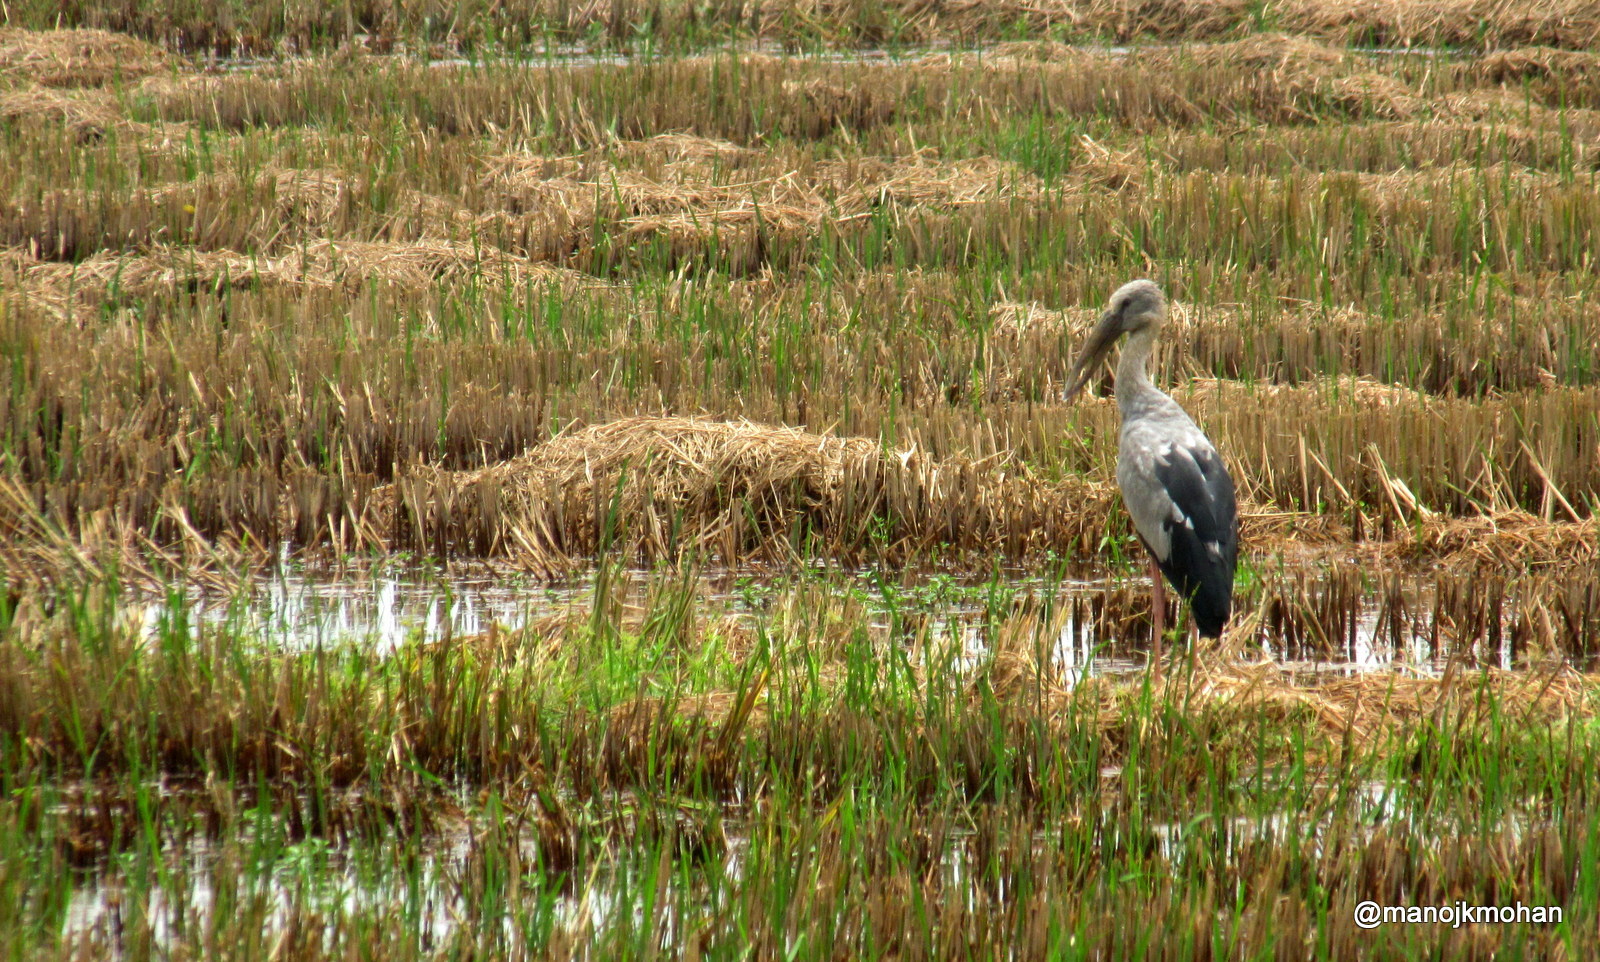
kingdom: Animalia
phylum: Chordata
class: Aves
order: Ciconiiformes
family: Ciconiidae
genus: Anastomus
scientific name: Anastomus oscitans
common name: Asian openbill
